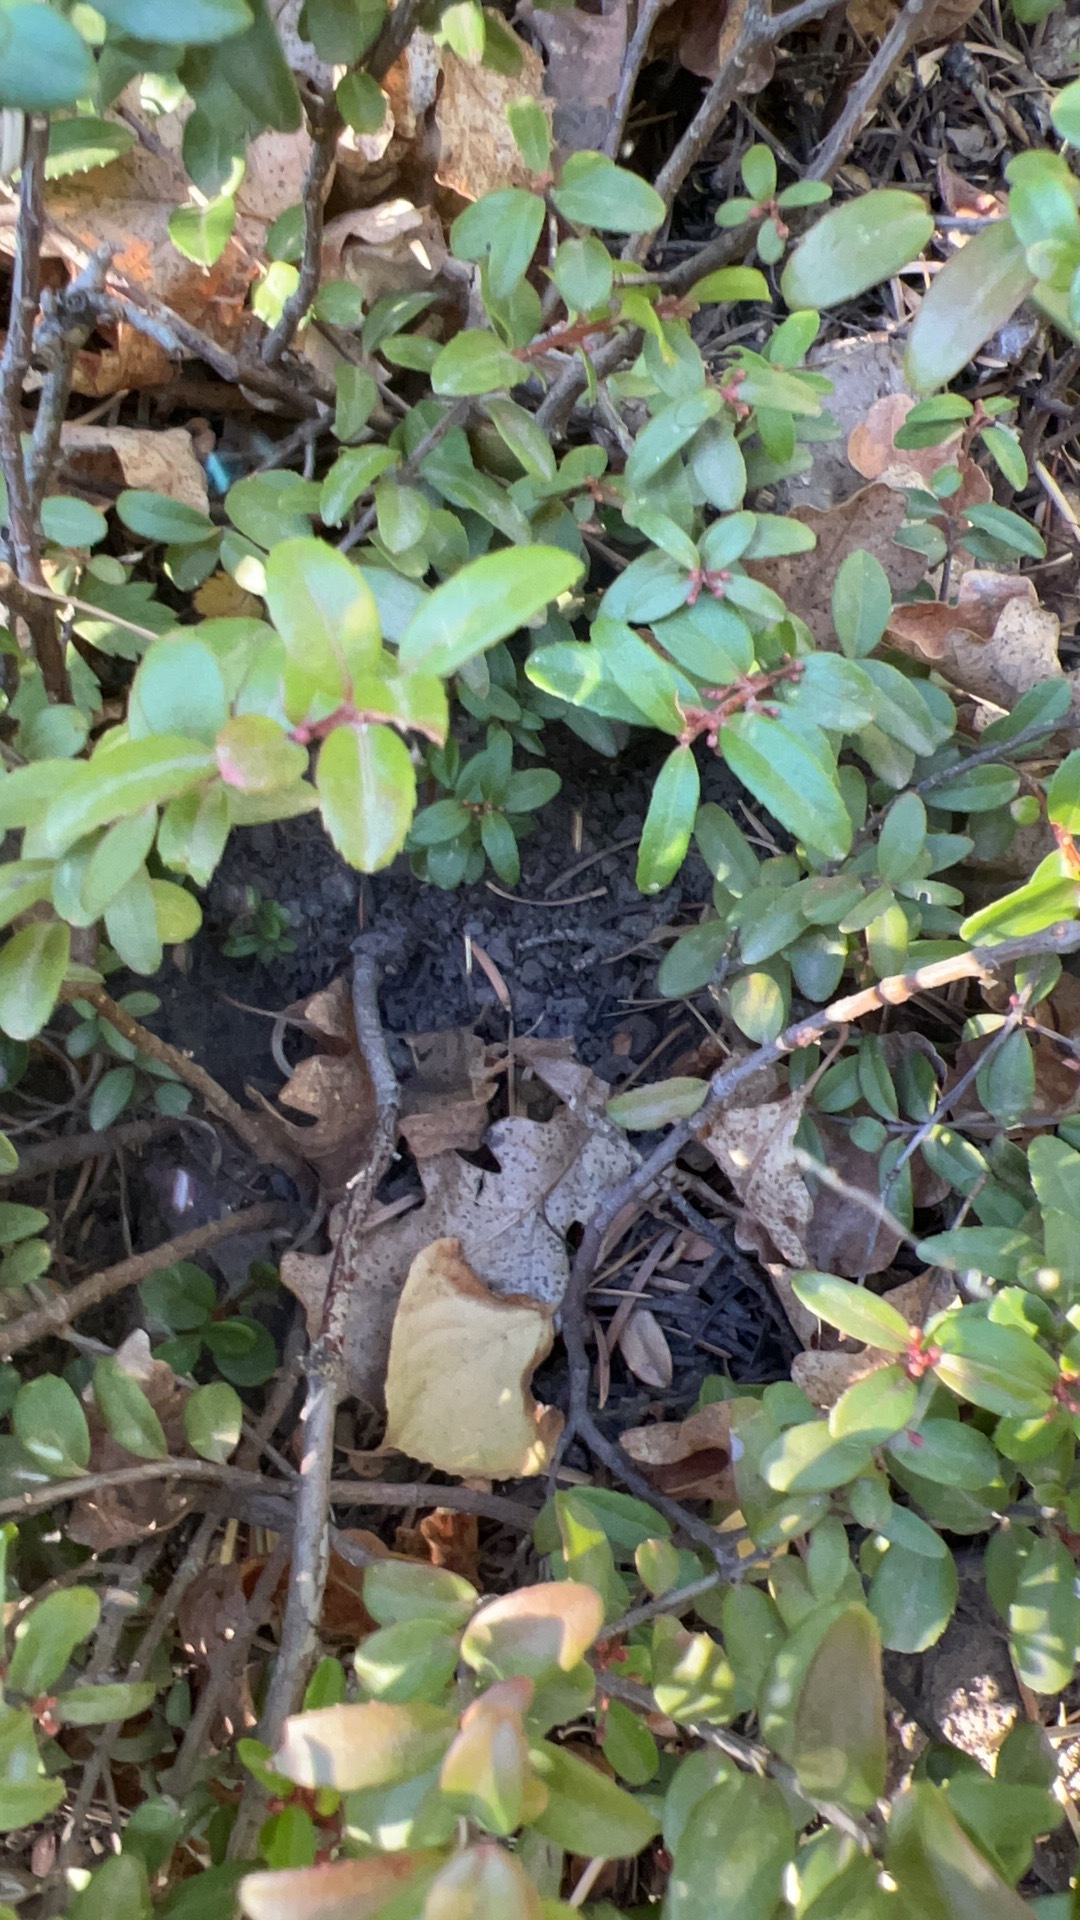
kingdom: Plantae
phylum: Tracheophyta
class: Magnoliopsida
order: Celastrales
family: Celastraceae
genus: Paxistima
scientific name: Paxistima myrsinites
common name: Mountain-lover
